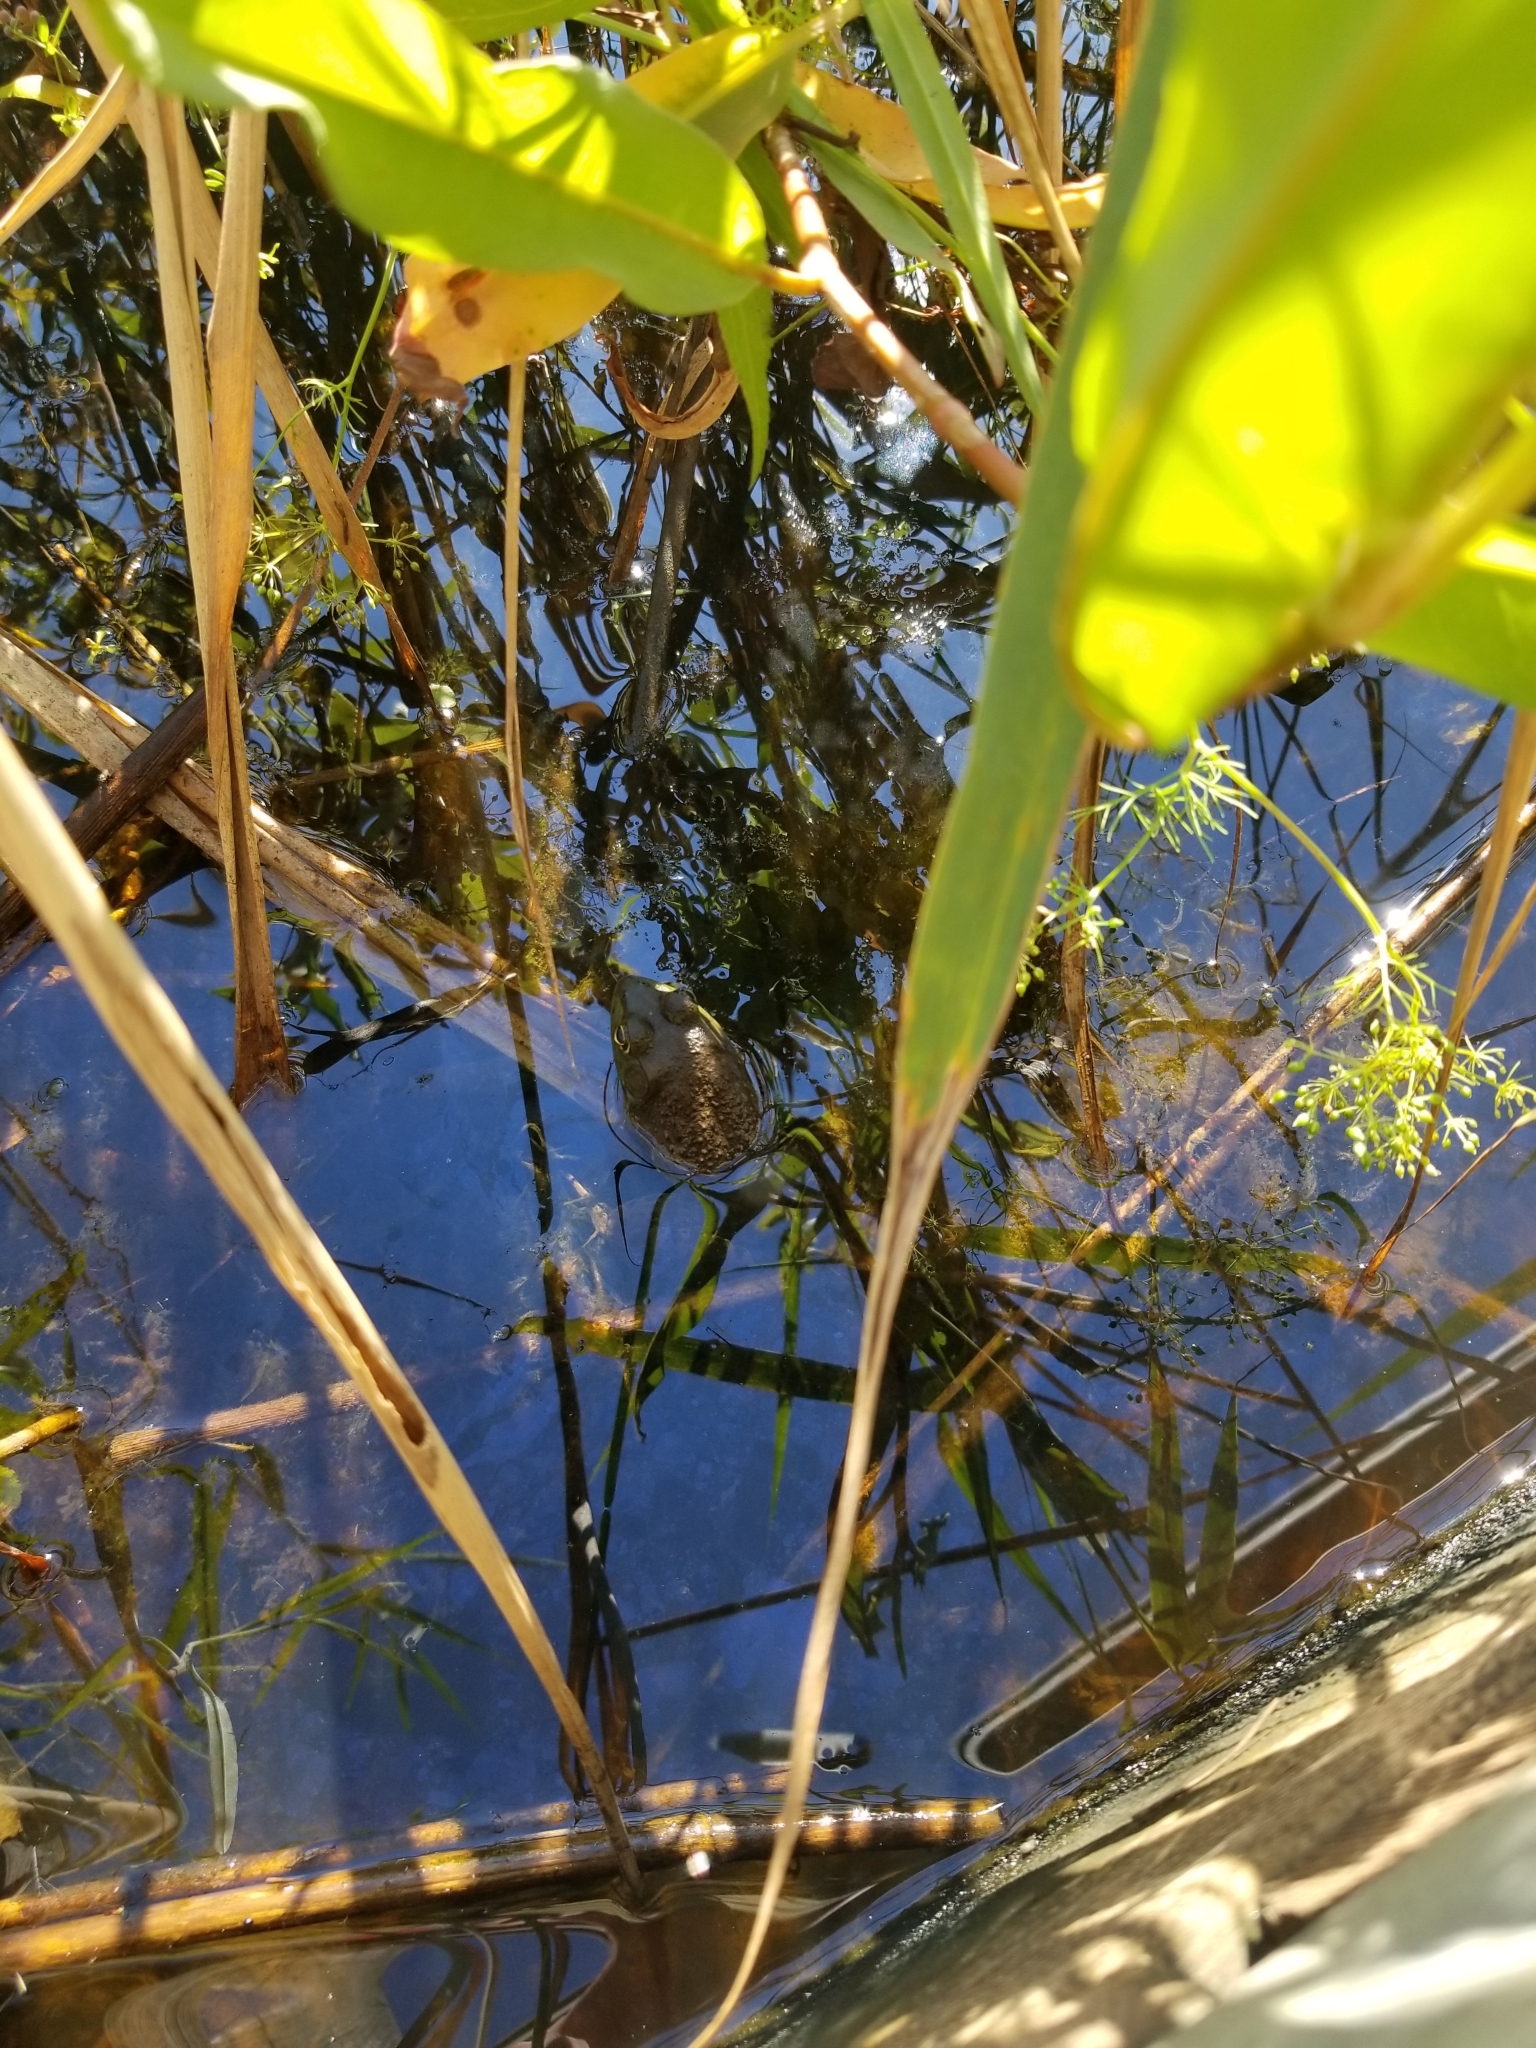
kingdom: Animalia
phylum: Chordata
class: Amphibia
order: Anura
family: Ranidae
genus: Lithobates
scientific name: Lithobates catesbeianus
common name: American bullfrog
